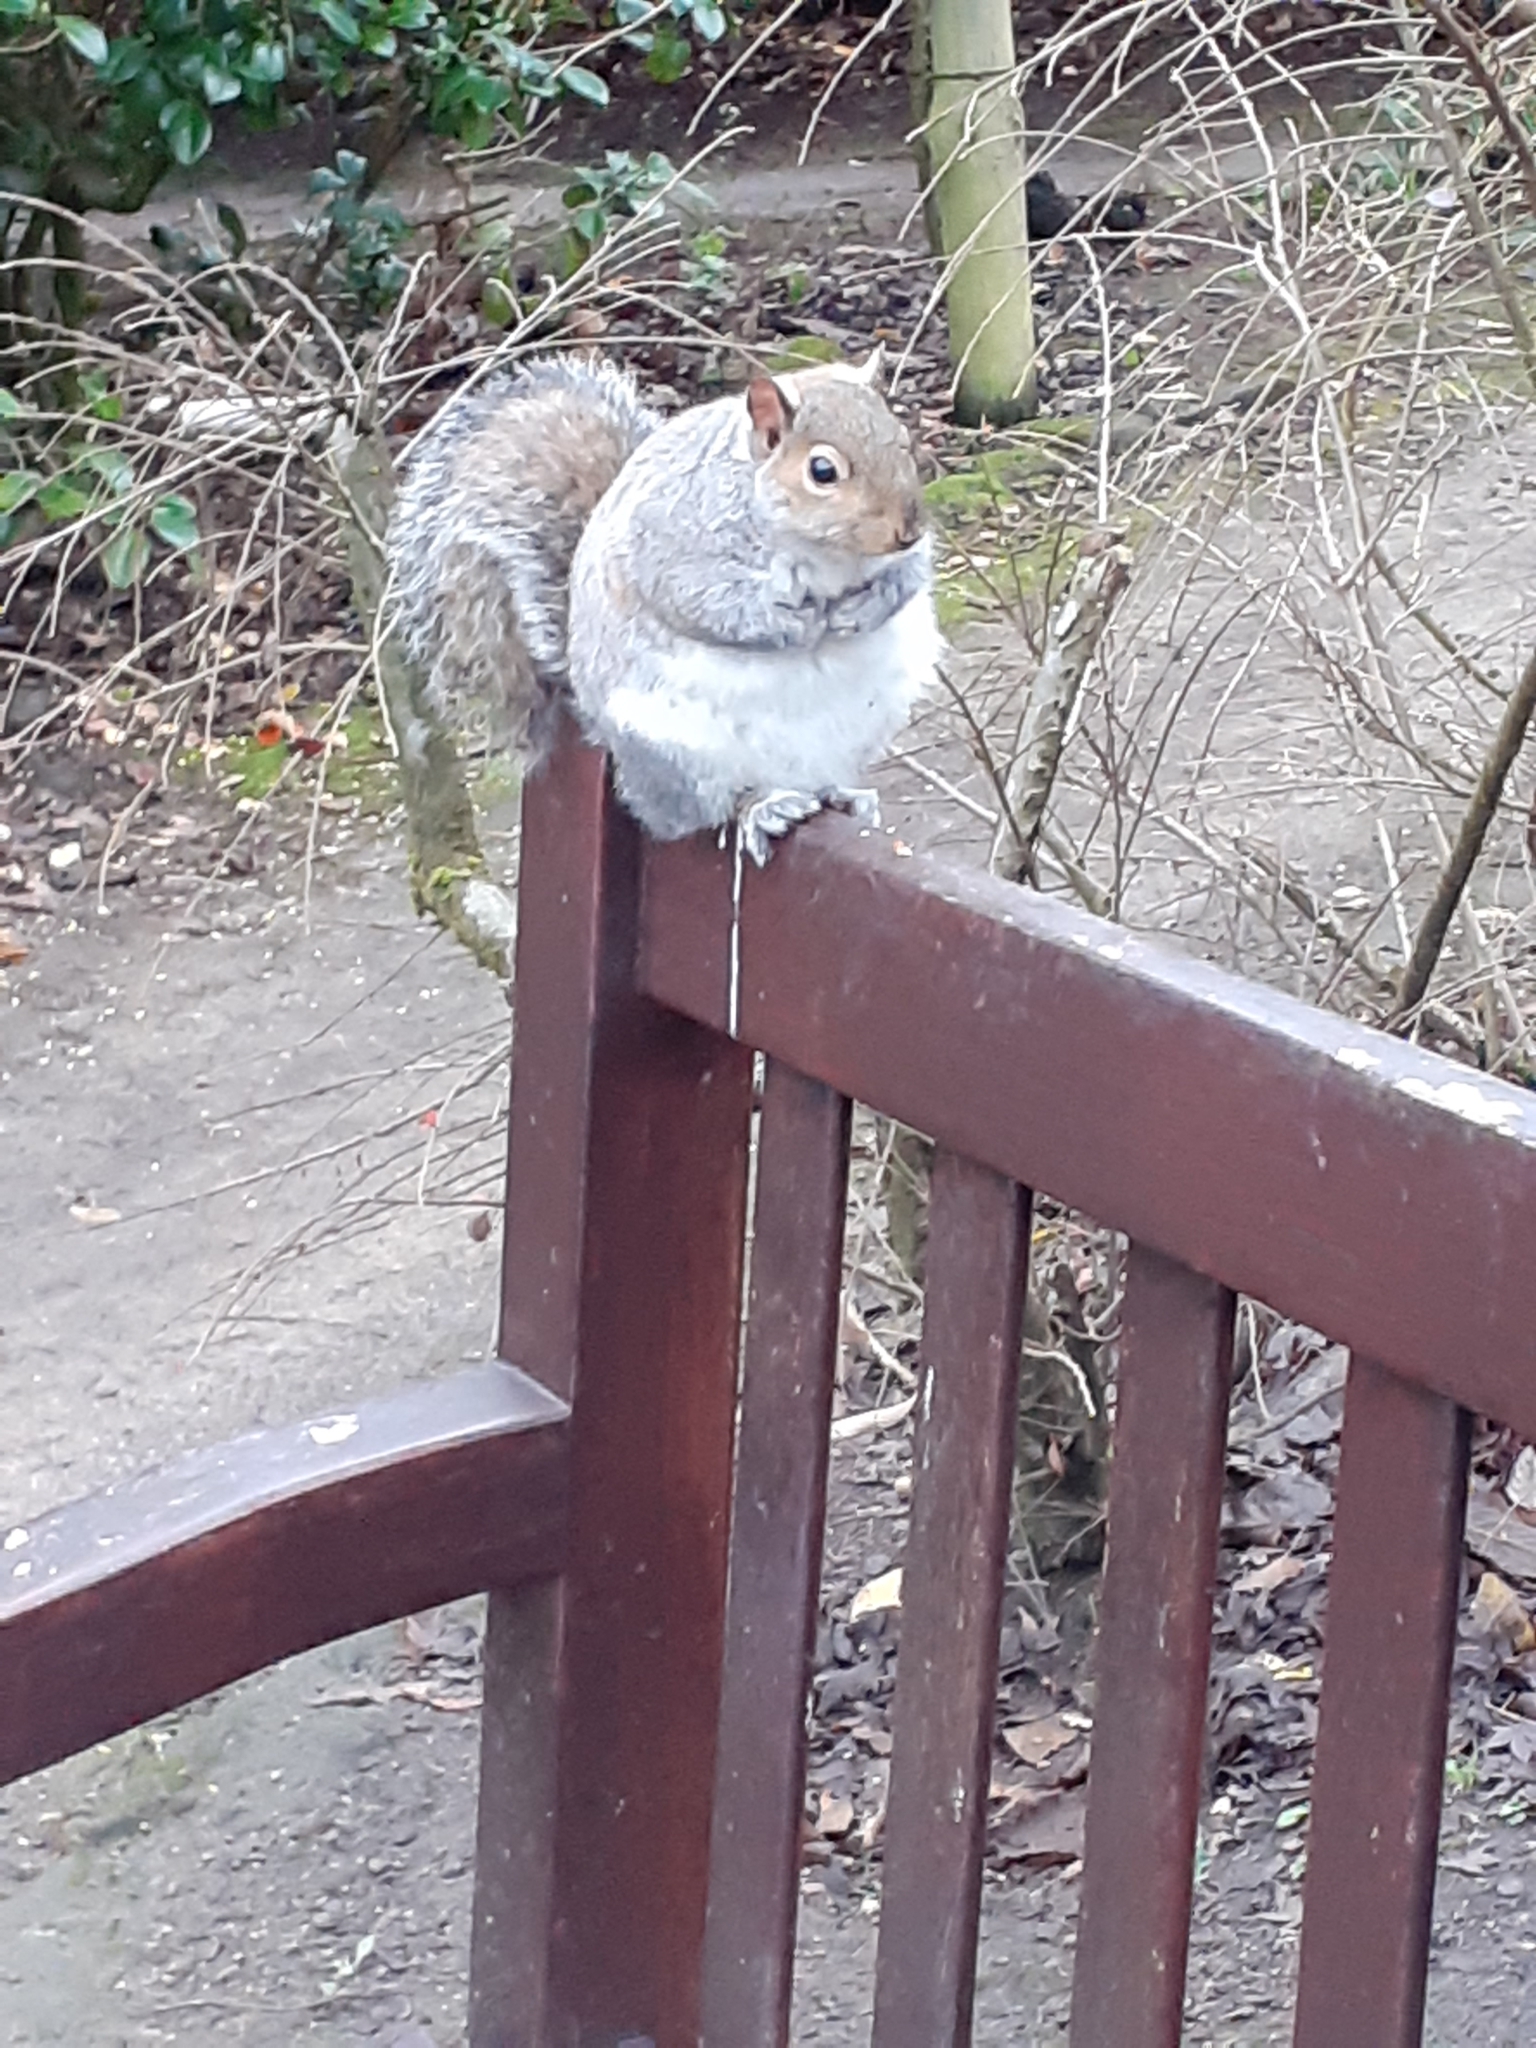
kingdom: Animalia
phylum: Chordata
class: Mammalia
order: Rodentia
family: Sciuridae
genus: Sciurus
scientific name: Sciurus carolinensis
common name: Eastern gray squirrel
